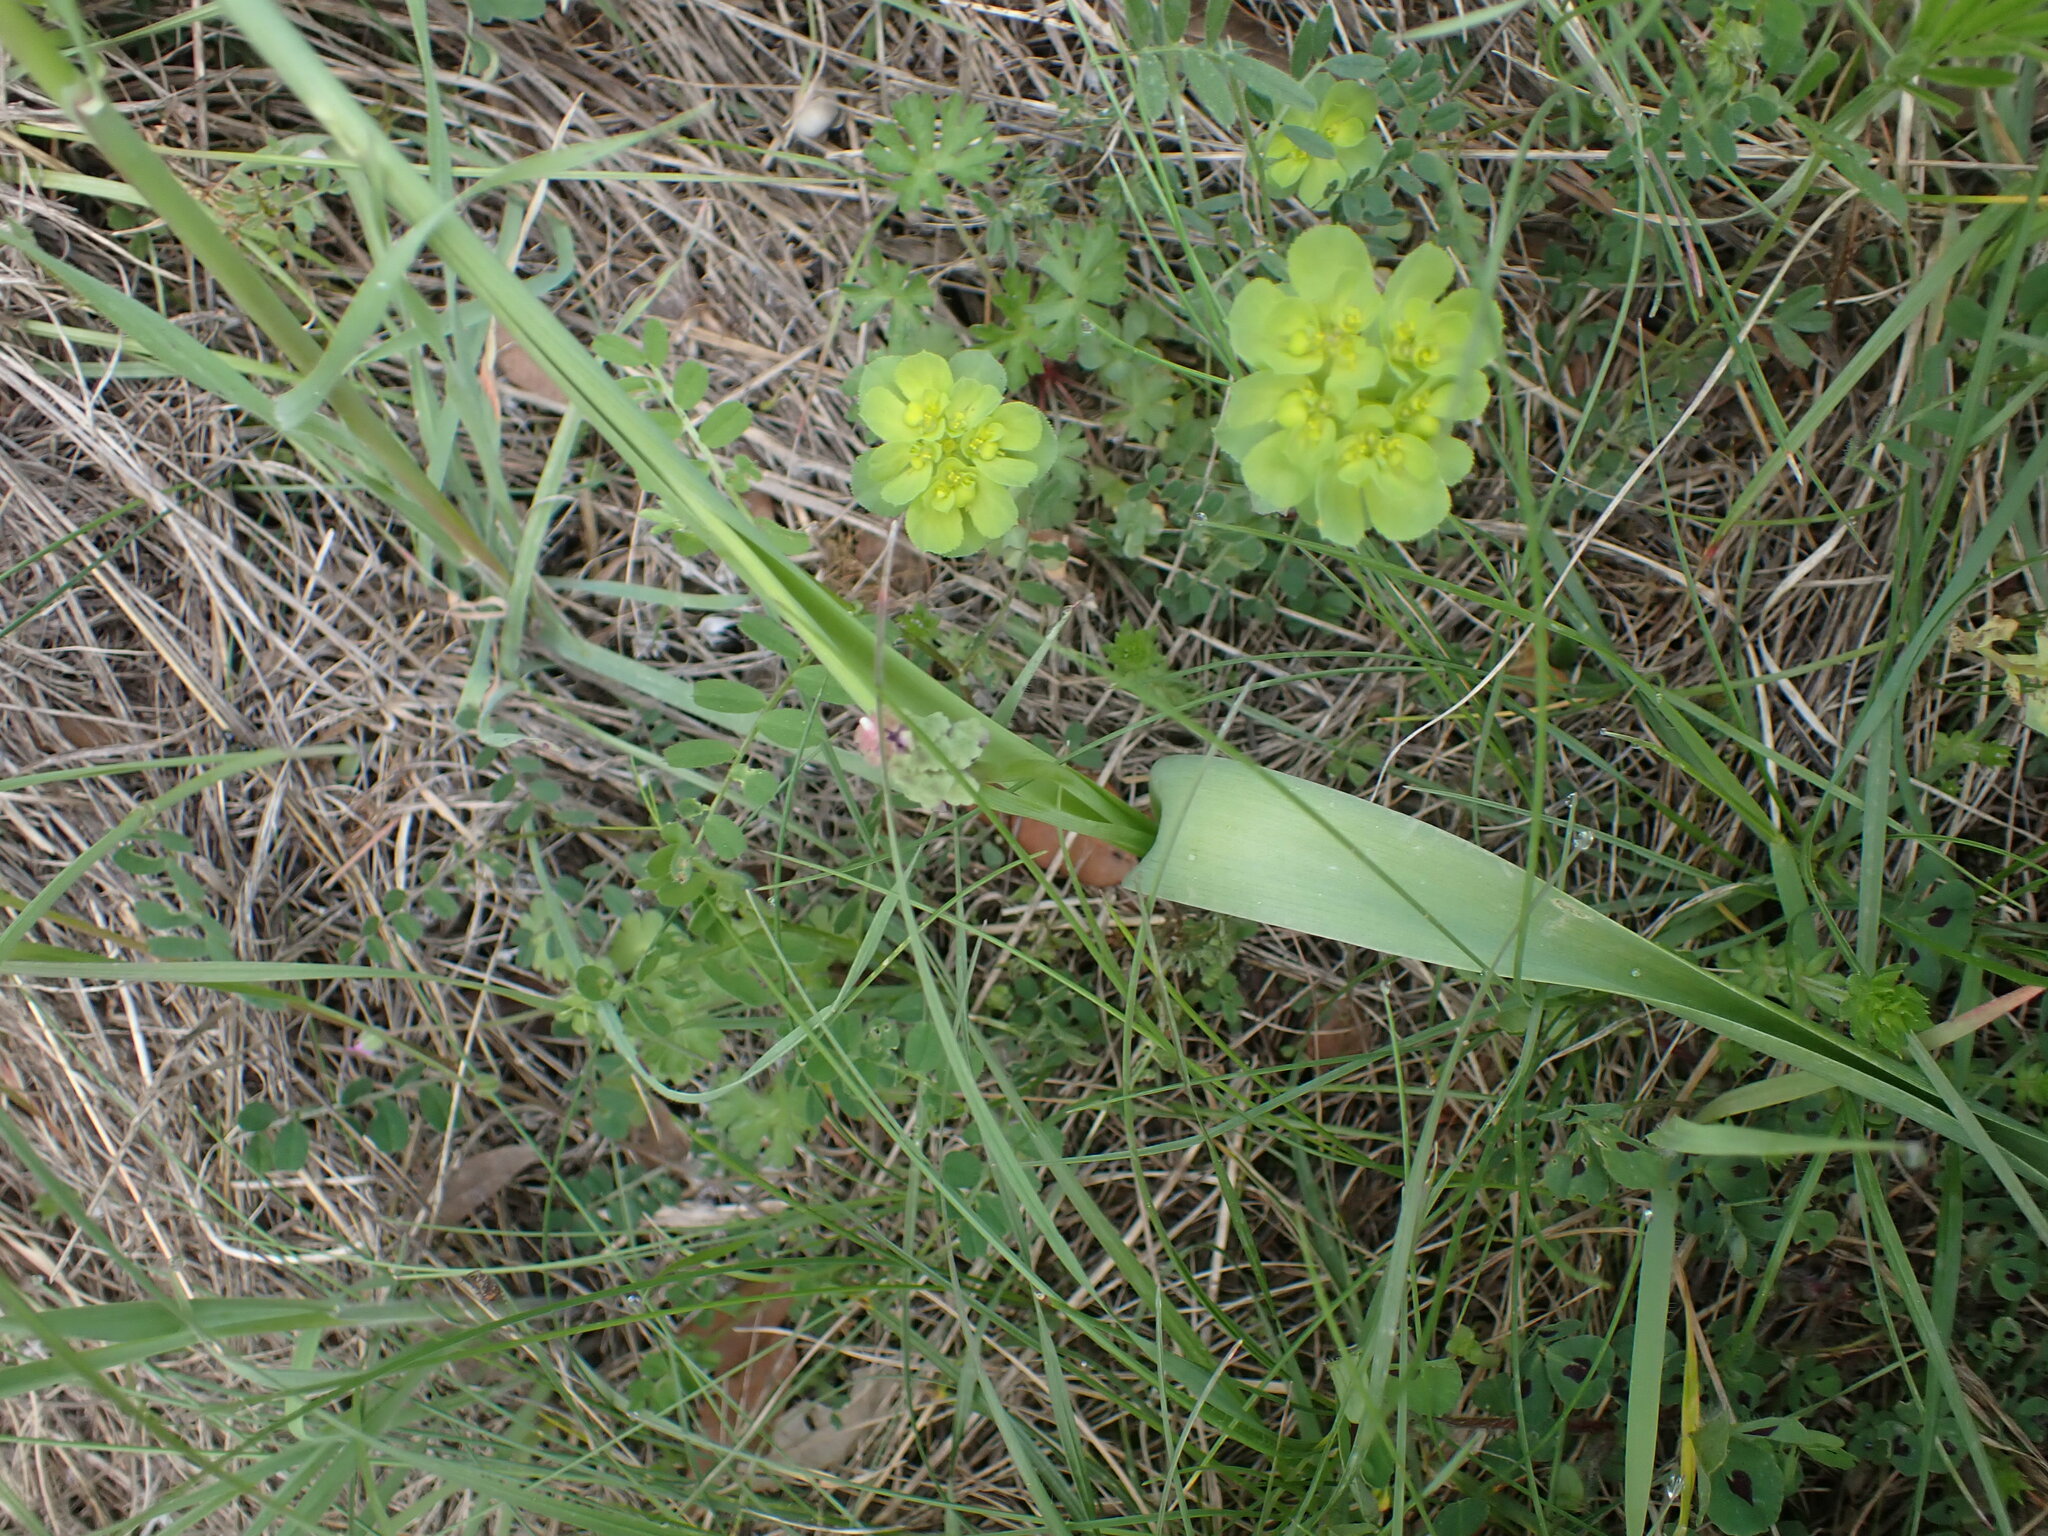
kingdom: Plantae
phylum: Tracheophyta
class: Liliopsida
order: Asparagales
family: Asparagaceae
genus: Muscari
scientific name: Muscari comosum
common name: Tassel hyacinth
